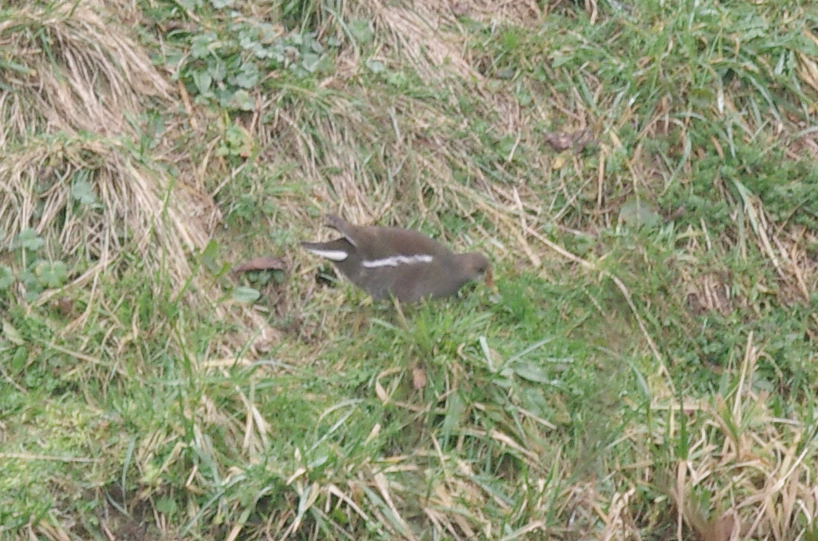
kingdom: Animalia
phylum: Chordata
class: Aves
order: Gruiformes
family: Rallidae
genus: Gallinula
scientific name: Gallinula chloropus
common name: Common moorhen
